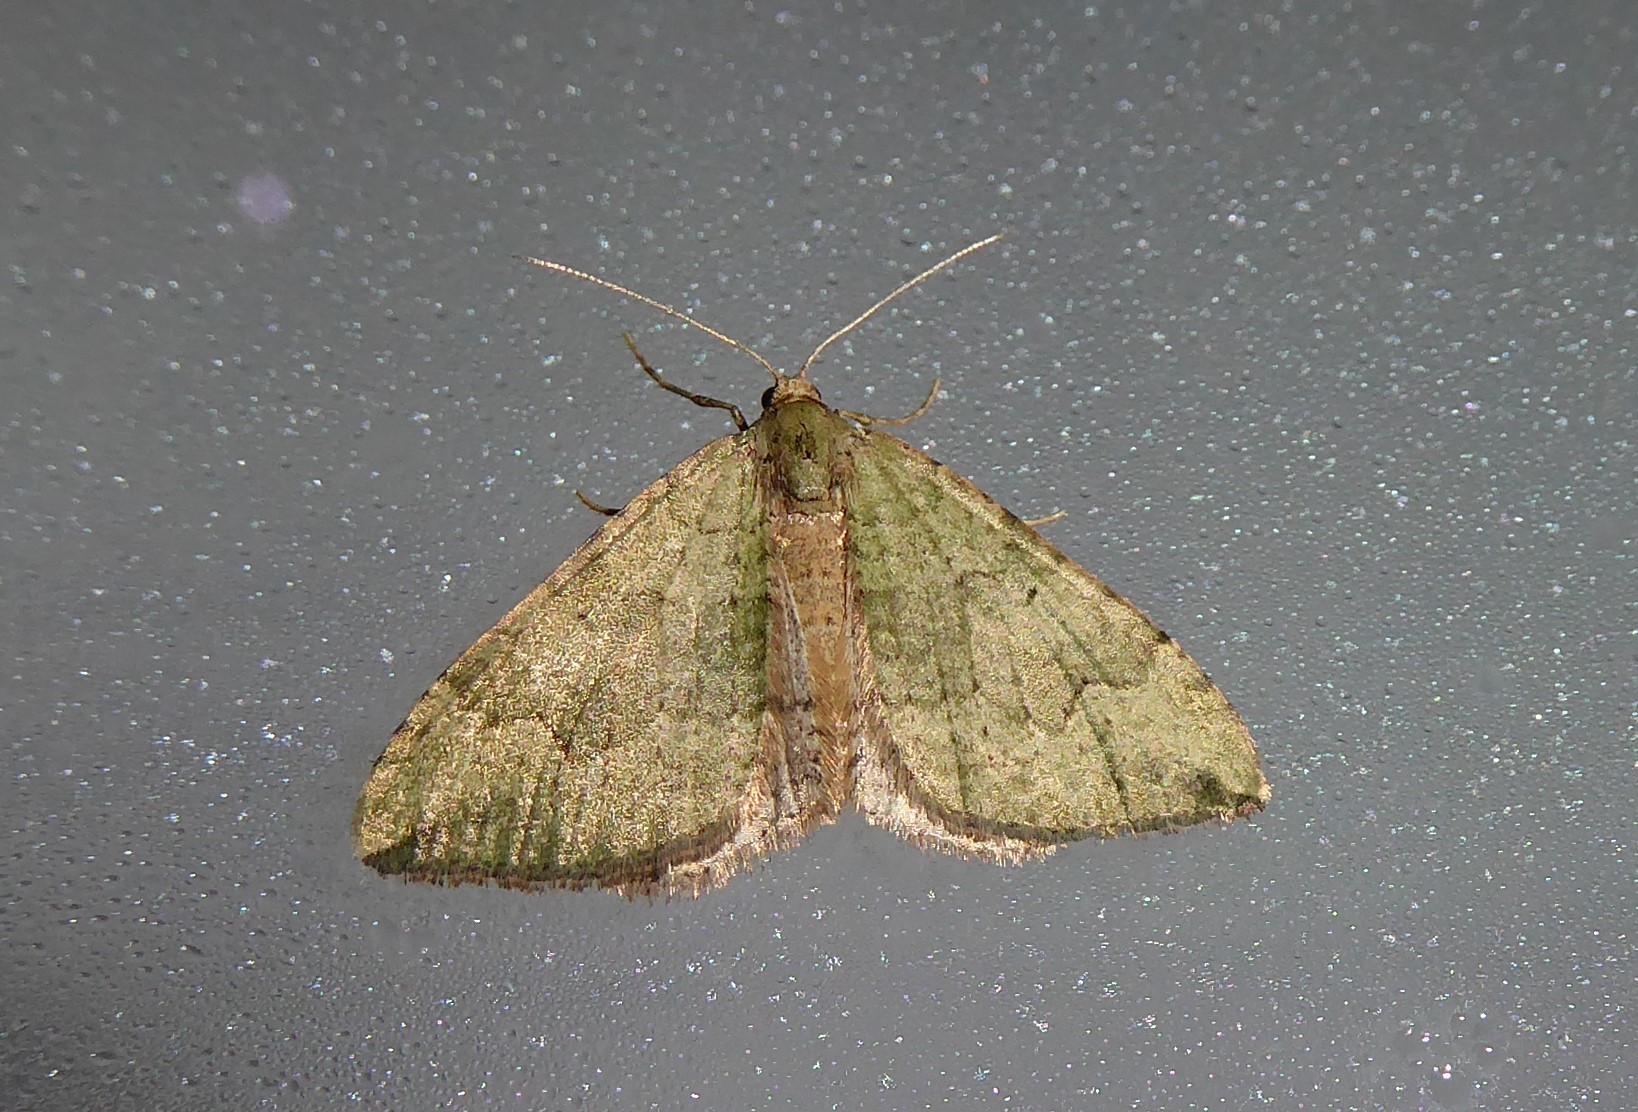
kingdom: Animalia
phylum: Arthropoda
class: Insecta
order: Lepidoptera
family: Geometridae
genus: Epyaxa
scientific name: Epyaxa rosearia
